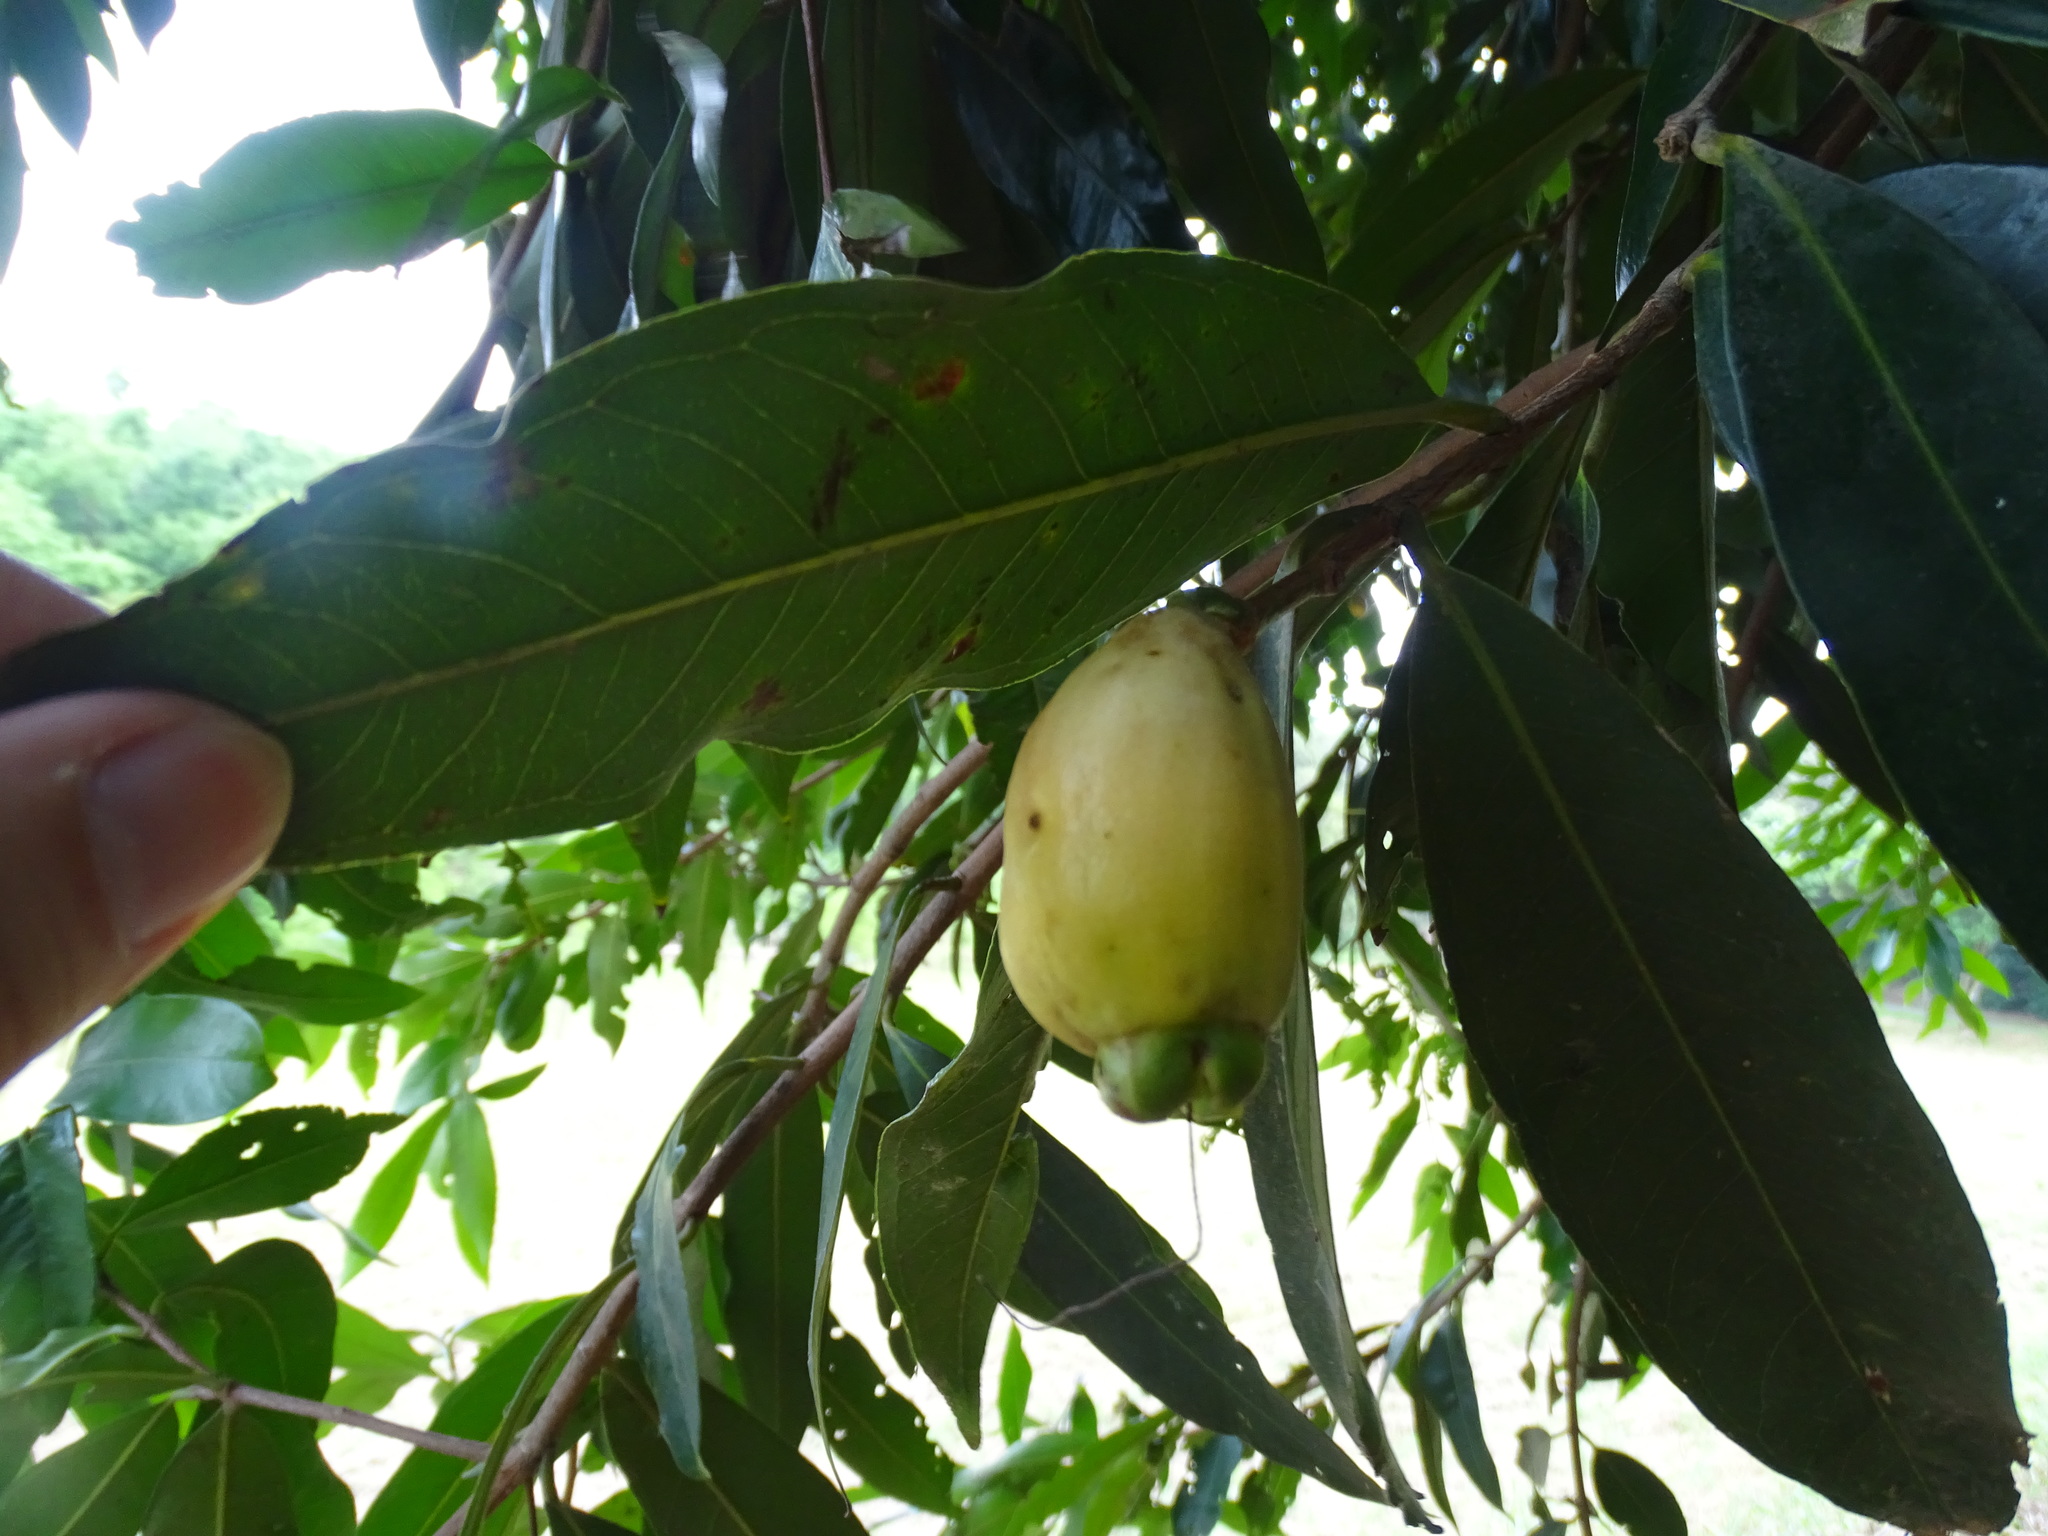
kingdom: Plantae
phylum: Tracheophyta
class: Magnoliopsida
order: Myrtales
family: Myrtaceae
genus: Syzygium
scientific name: Syzygium jambos
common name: Malabar plum
